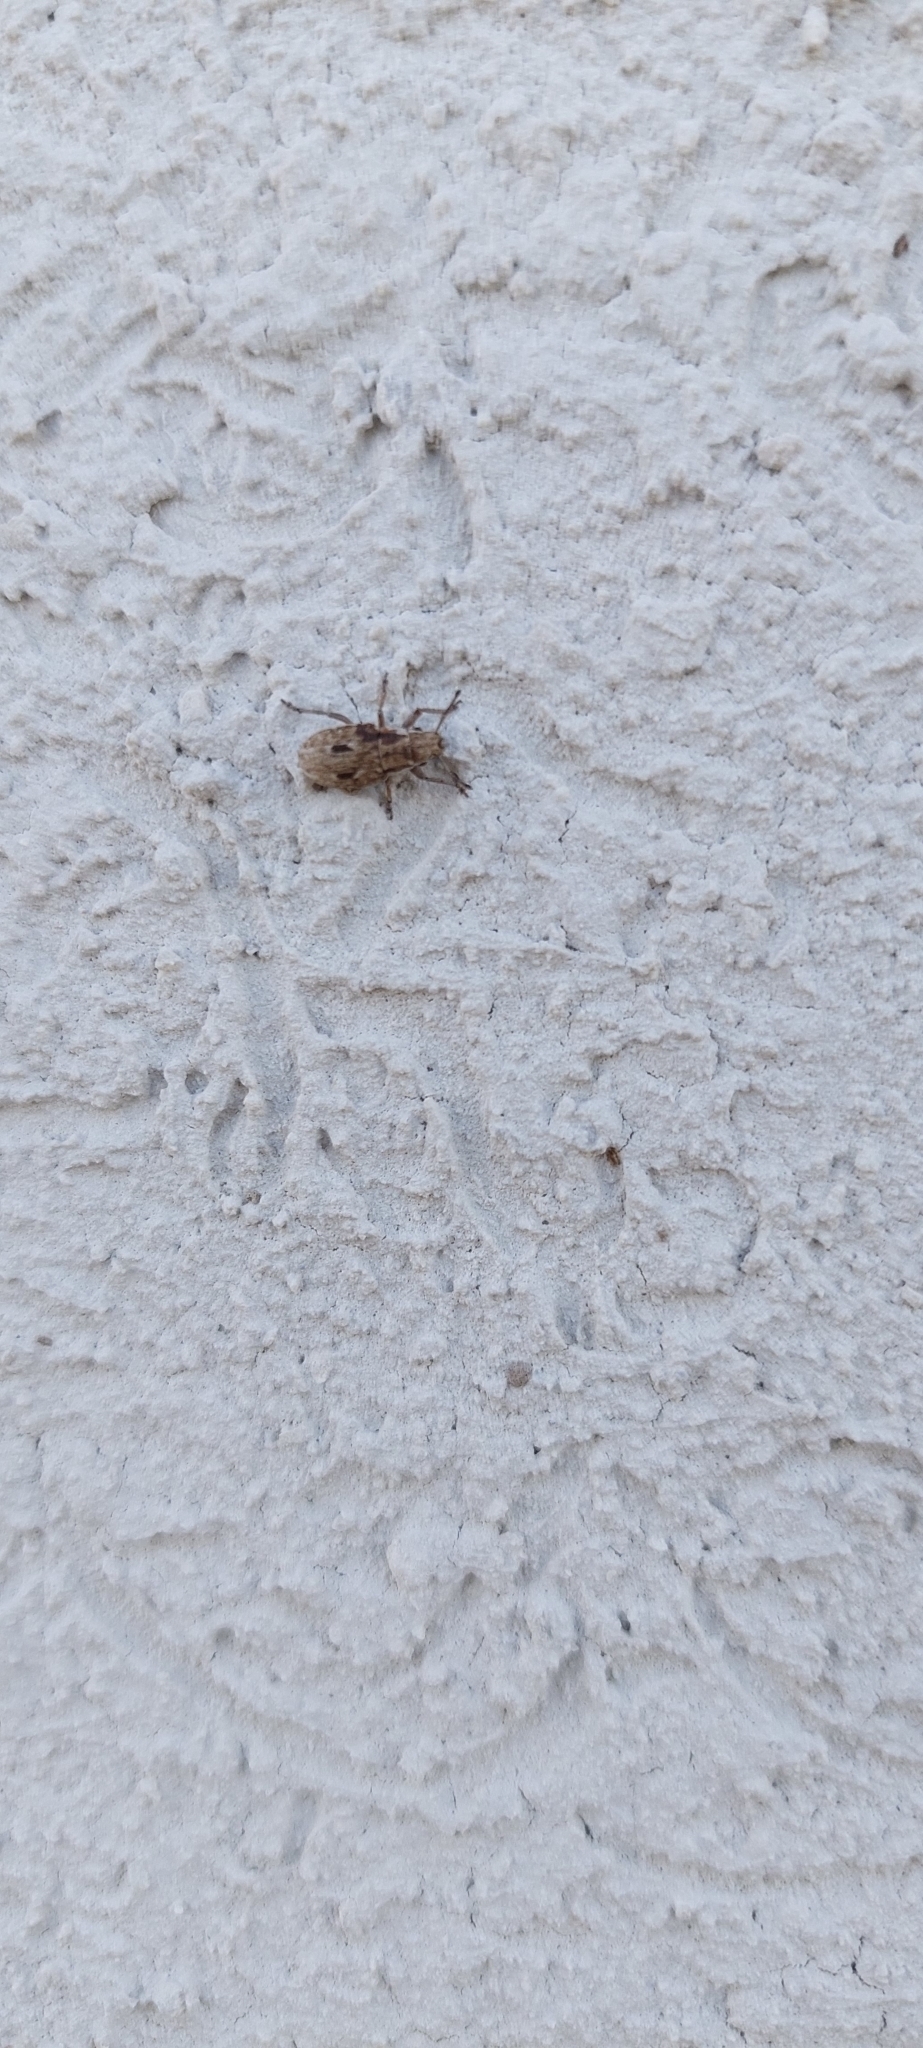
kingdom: Animalia
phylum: Arthropoda
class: Insecta
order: Coleoptera
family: Curculionidae
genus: Eurymetopus
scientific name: Eurymetopus fallax
